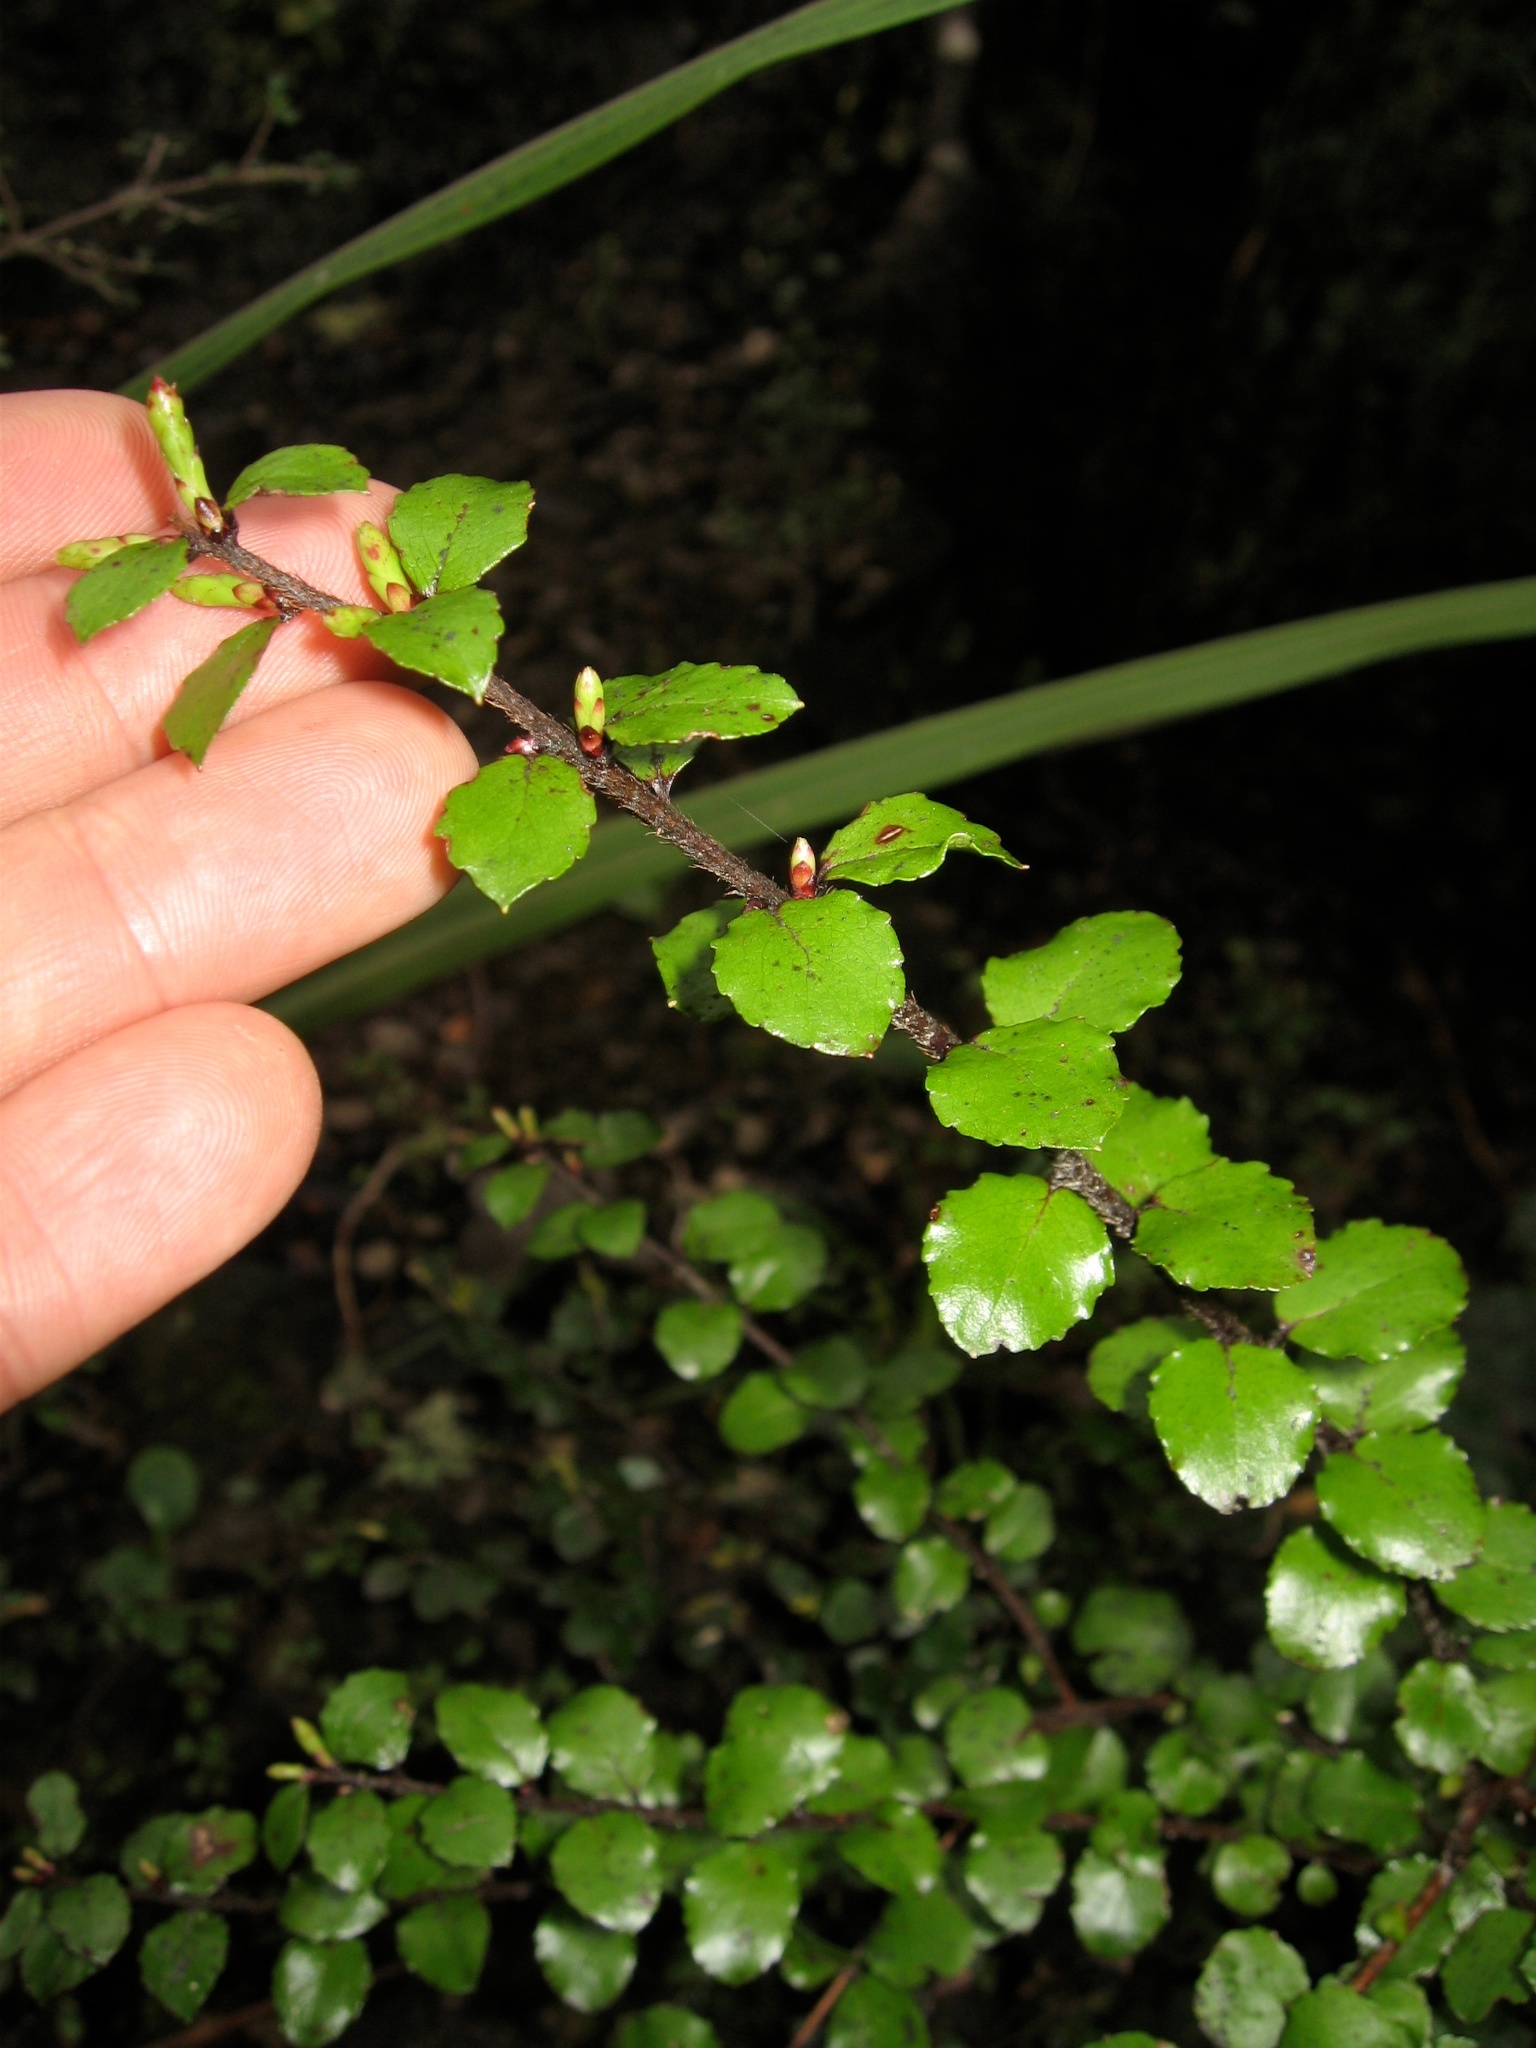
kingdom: Plantae
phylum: Tracheophyta
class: Magnoliopsida
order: Ericales
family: Ericaceae
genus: Gaultheria
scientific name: Gaultheria antipoda
